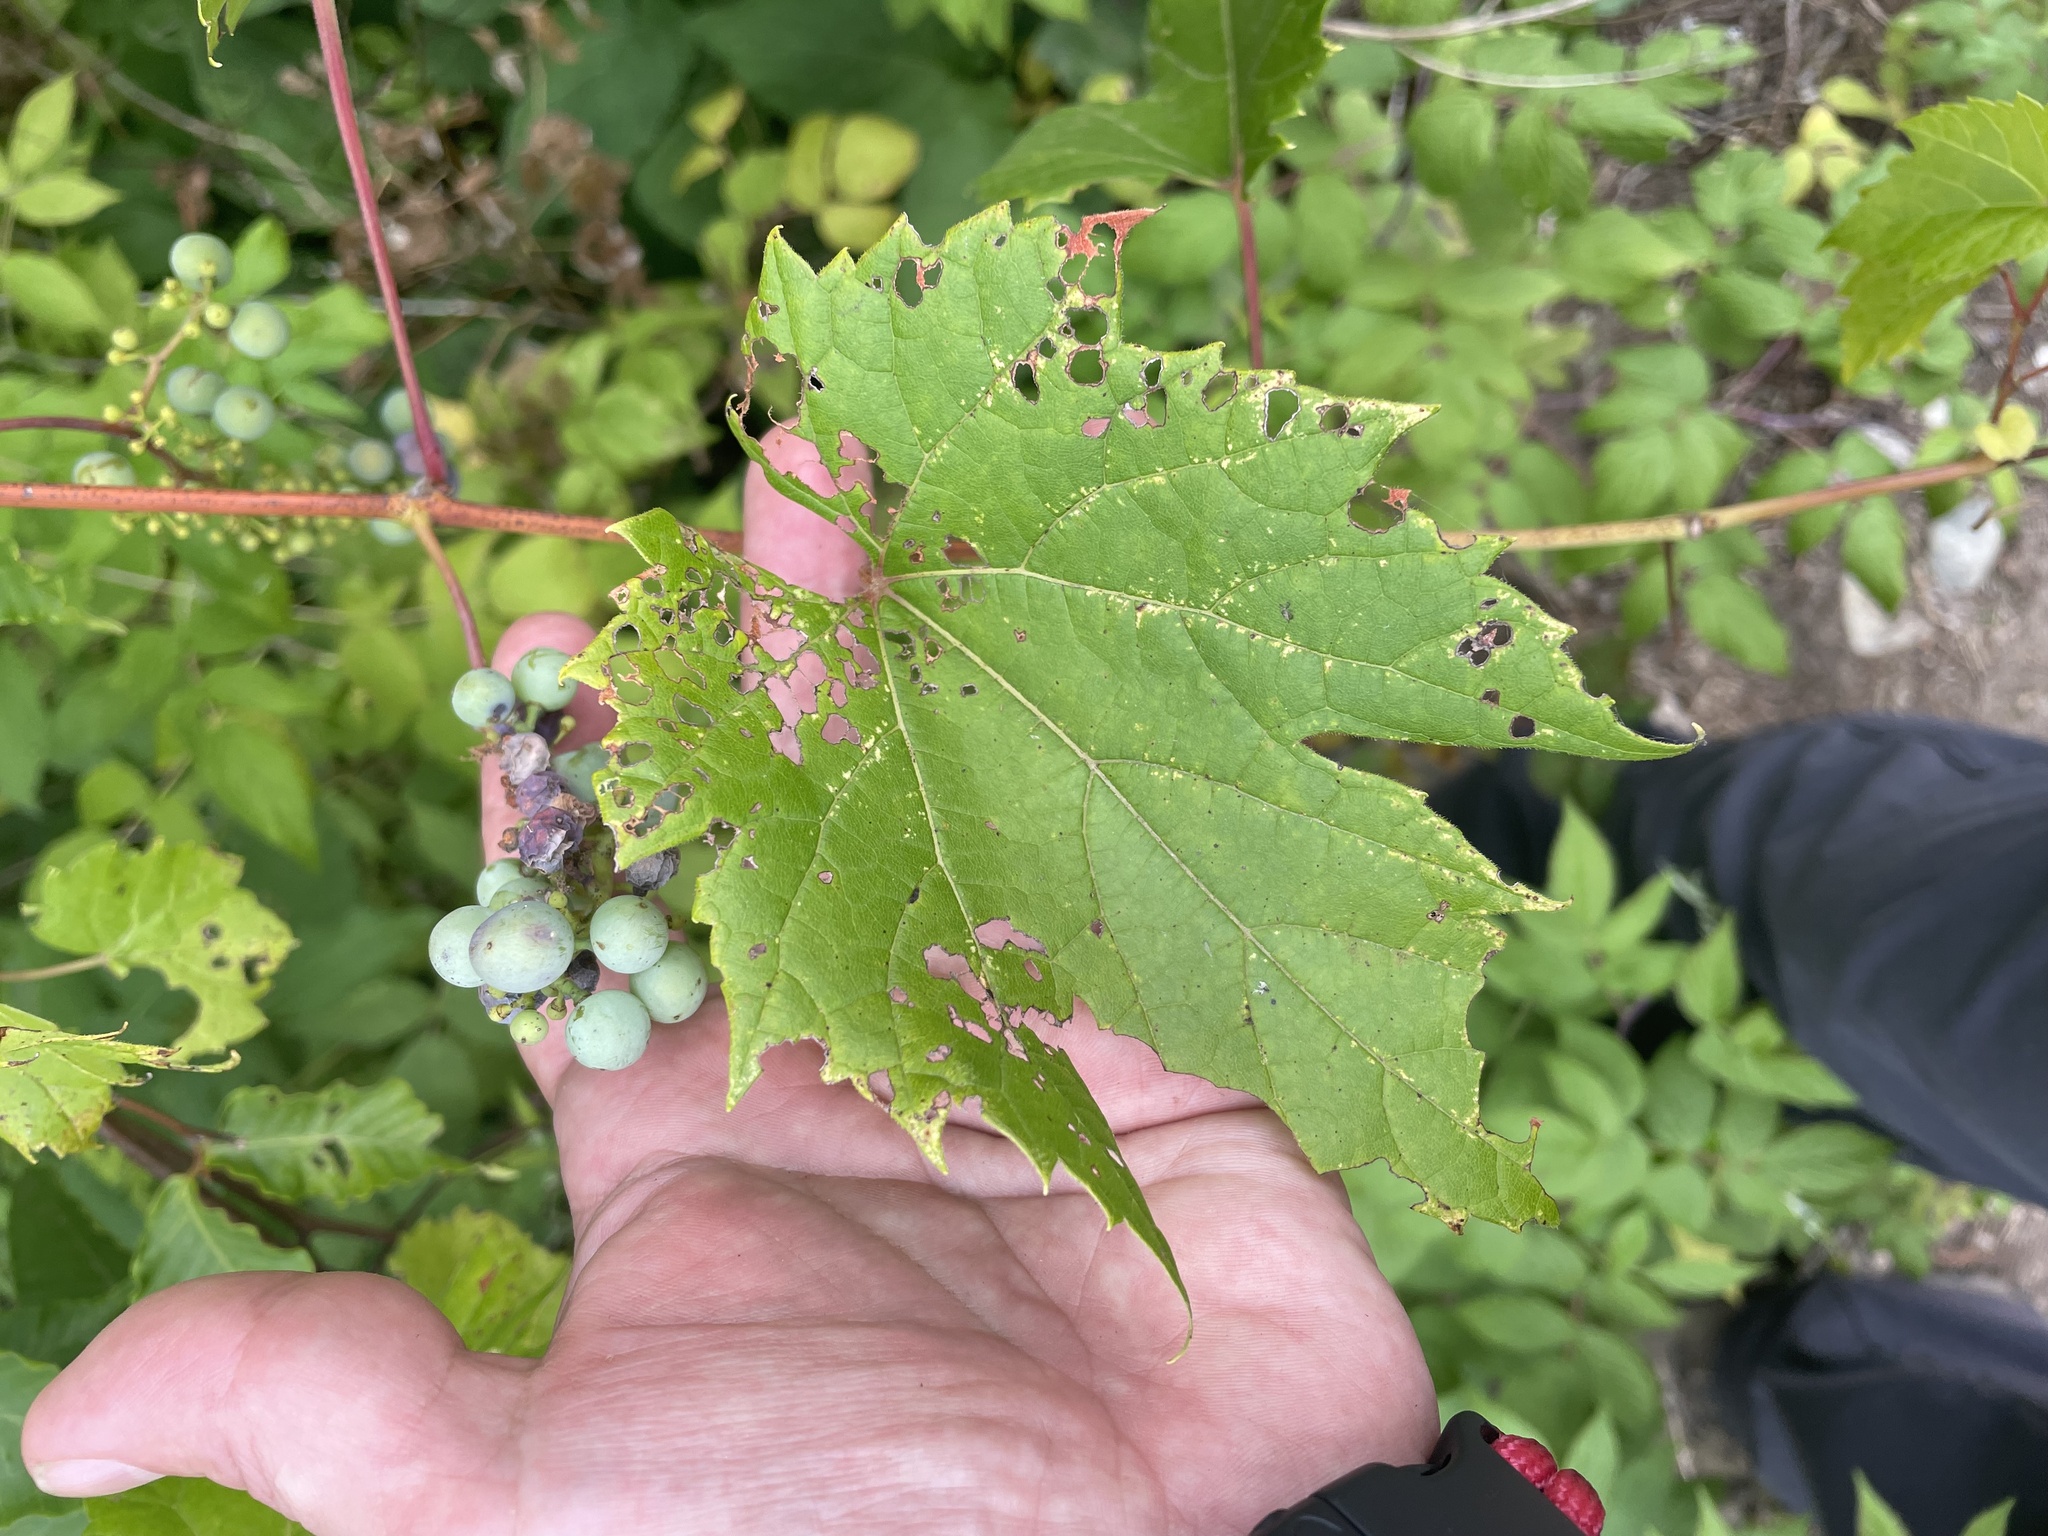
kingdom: Plantae
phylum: Tracheophyta
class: Magnoliopsida
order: Vitales
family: Vitaceae
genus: Vitis
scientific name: Vitis riparia
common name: Frost grape
